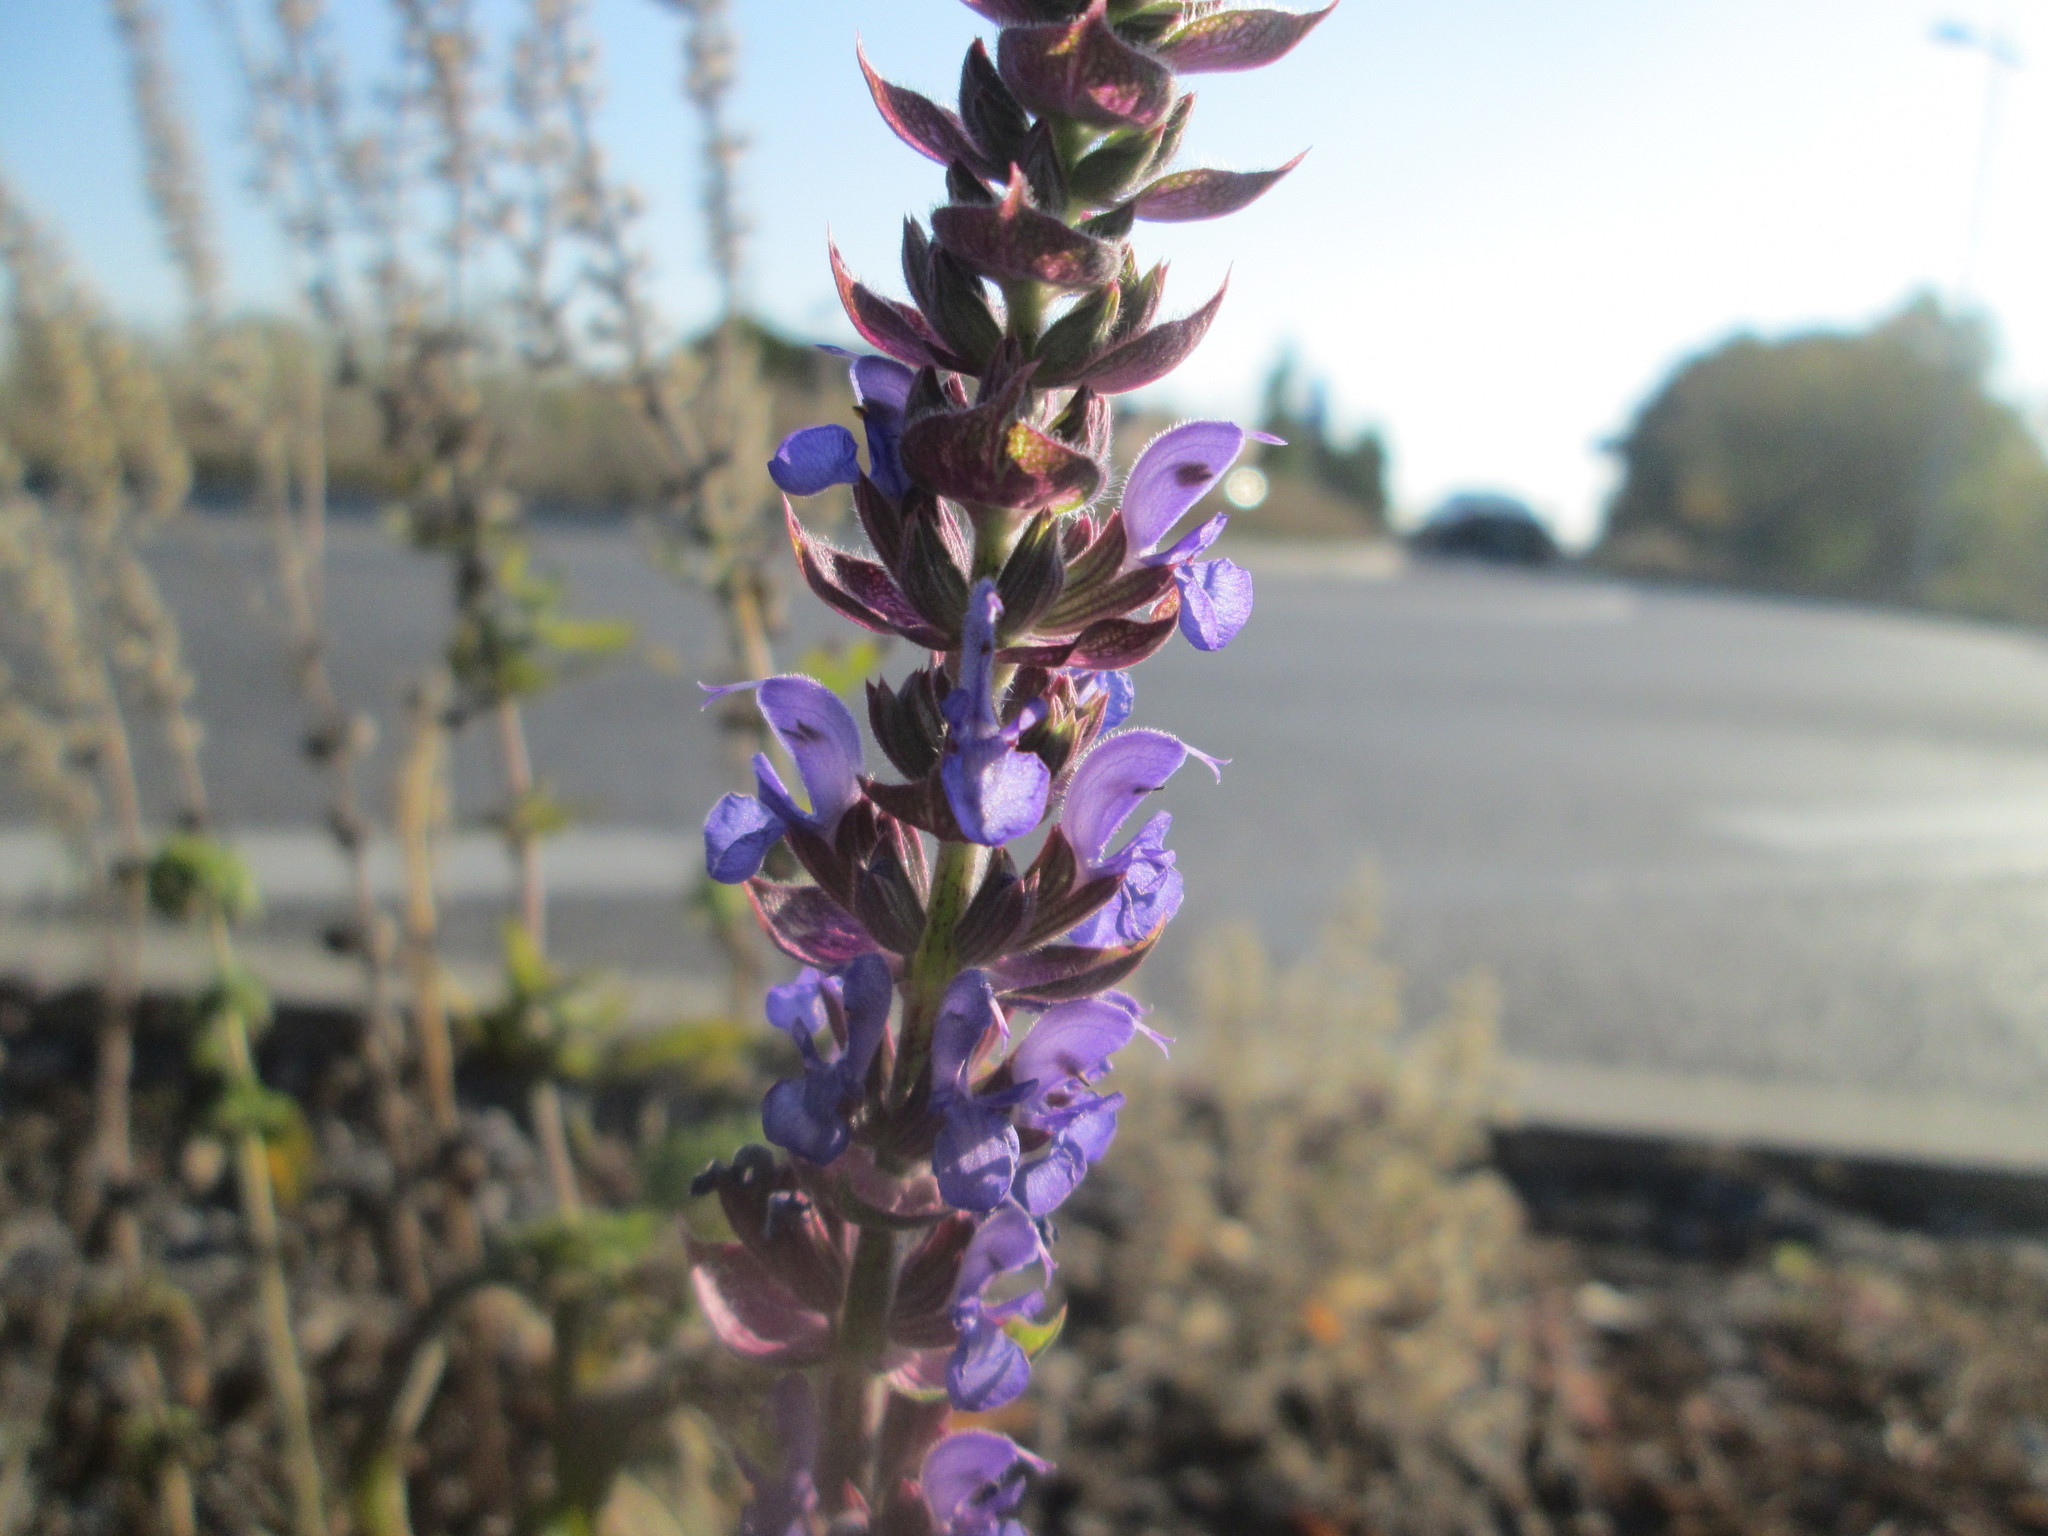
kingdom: Plantae
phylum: Tracheophyta
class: Magnoliopsida
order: Lamiales
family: Lamiaceae
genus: Salvia
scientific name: Salvia nemorosa
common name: Balkan clary
